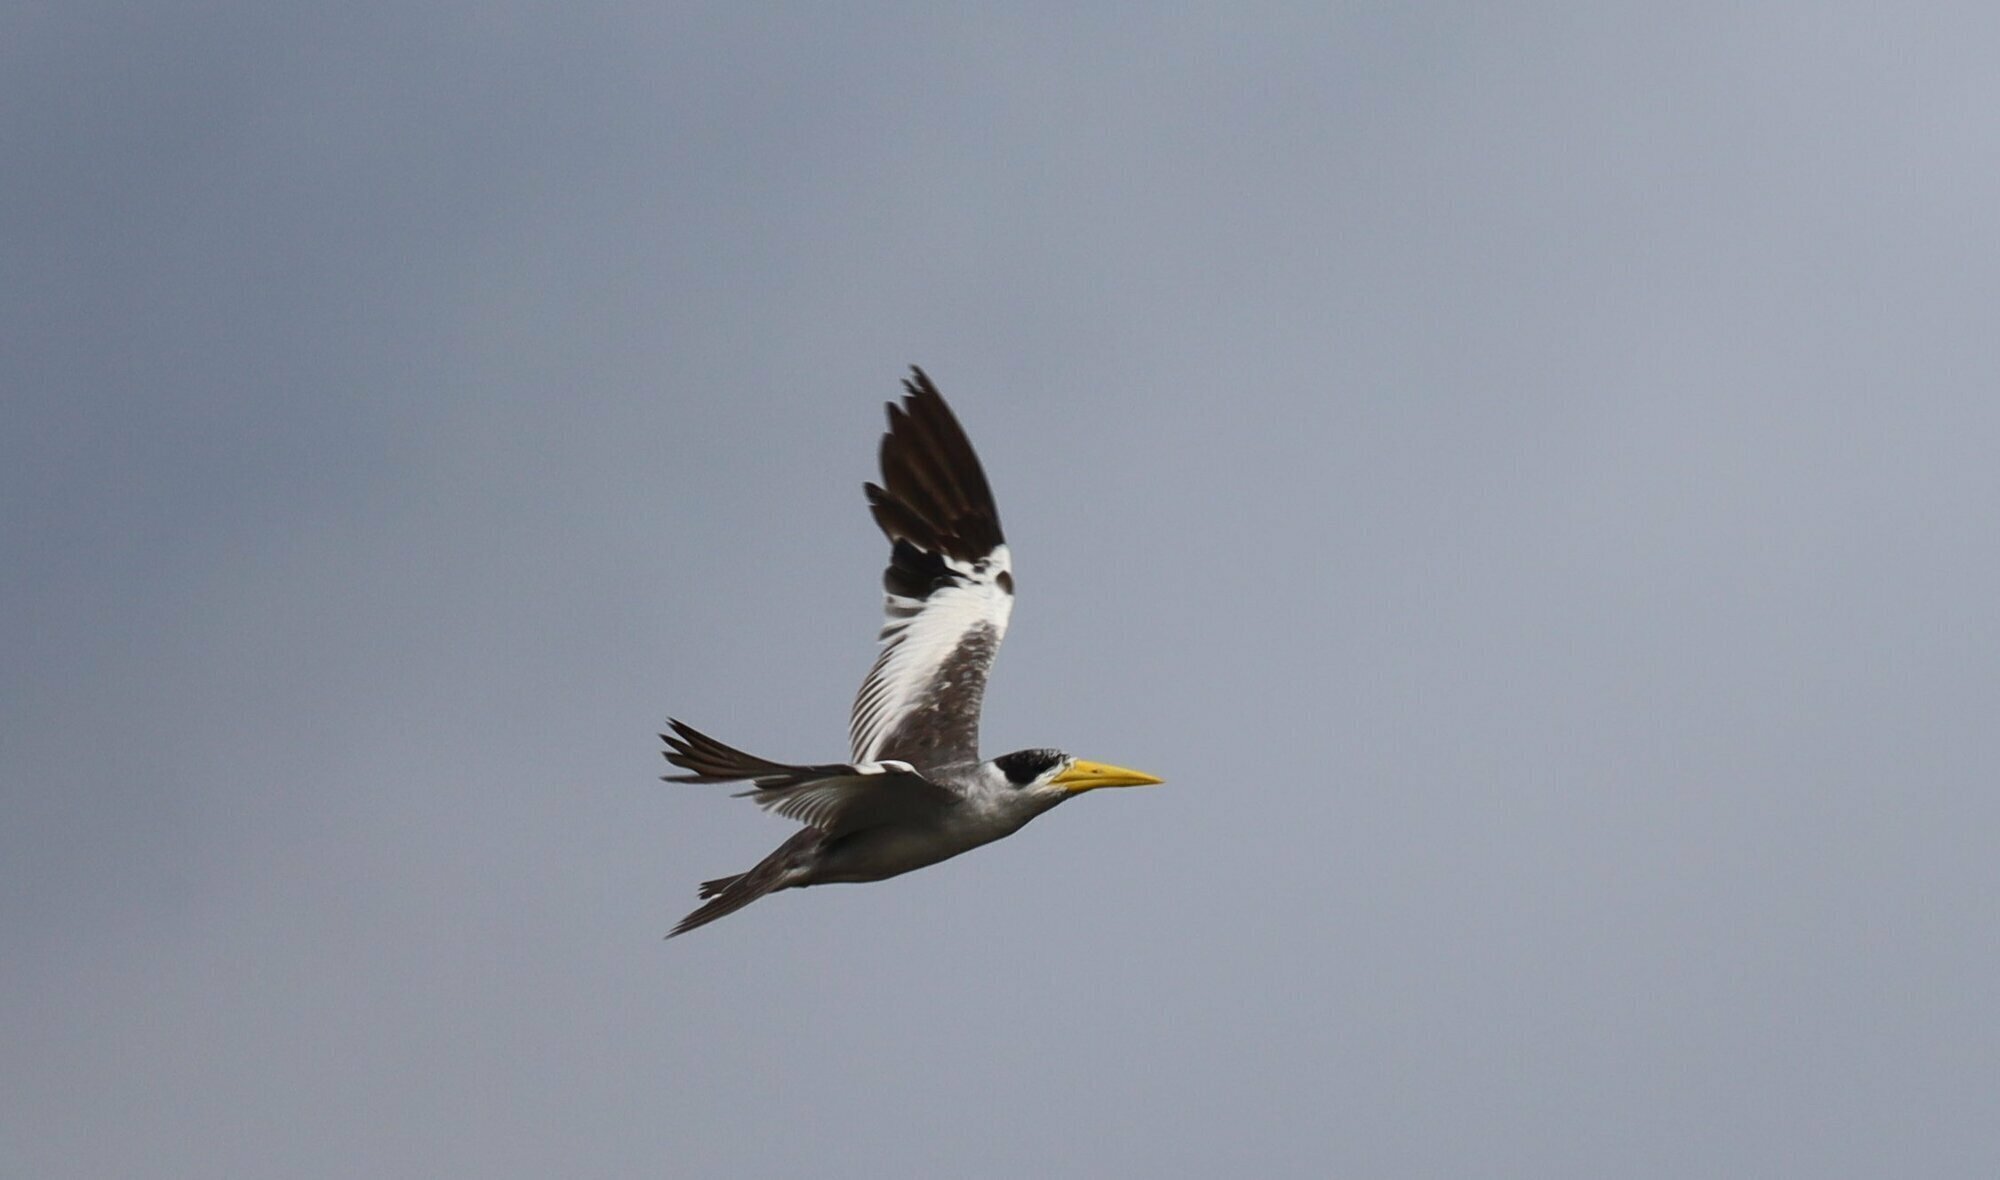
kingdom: Animalia
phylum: Chordata
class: Aves
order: Charadriiformes
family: Laridae
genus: Phaetusa
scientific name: Phaetusa simplex
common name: Large-billed tern
